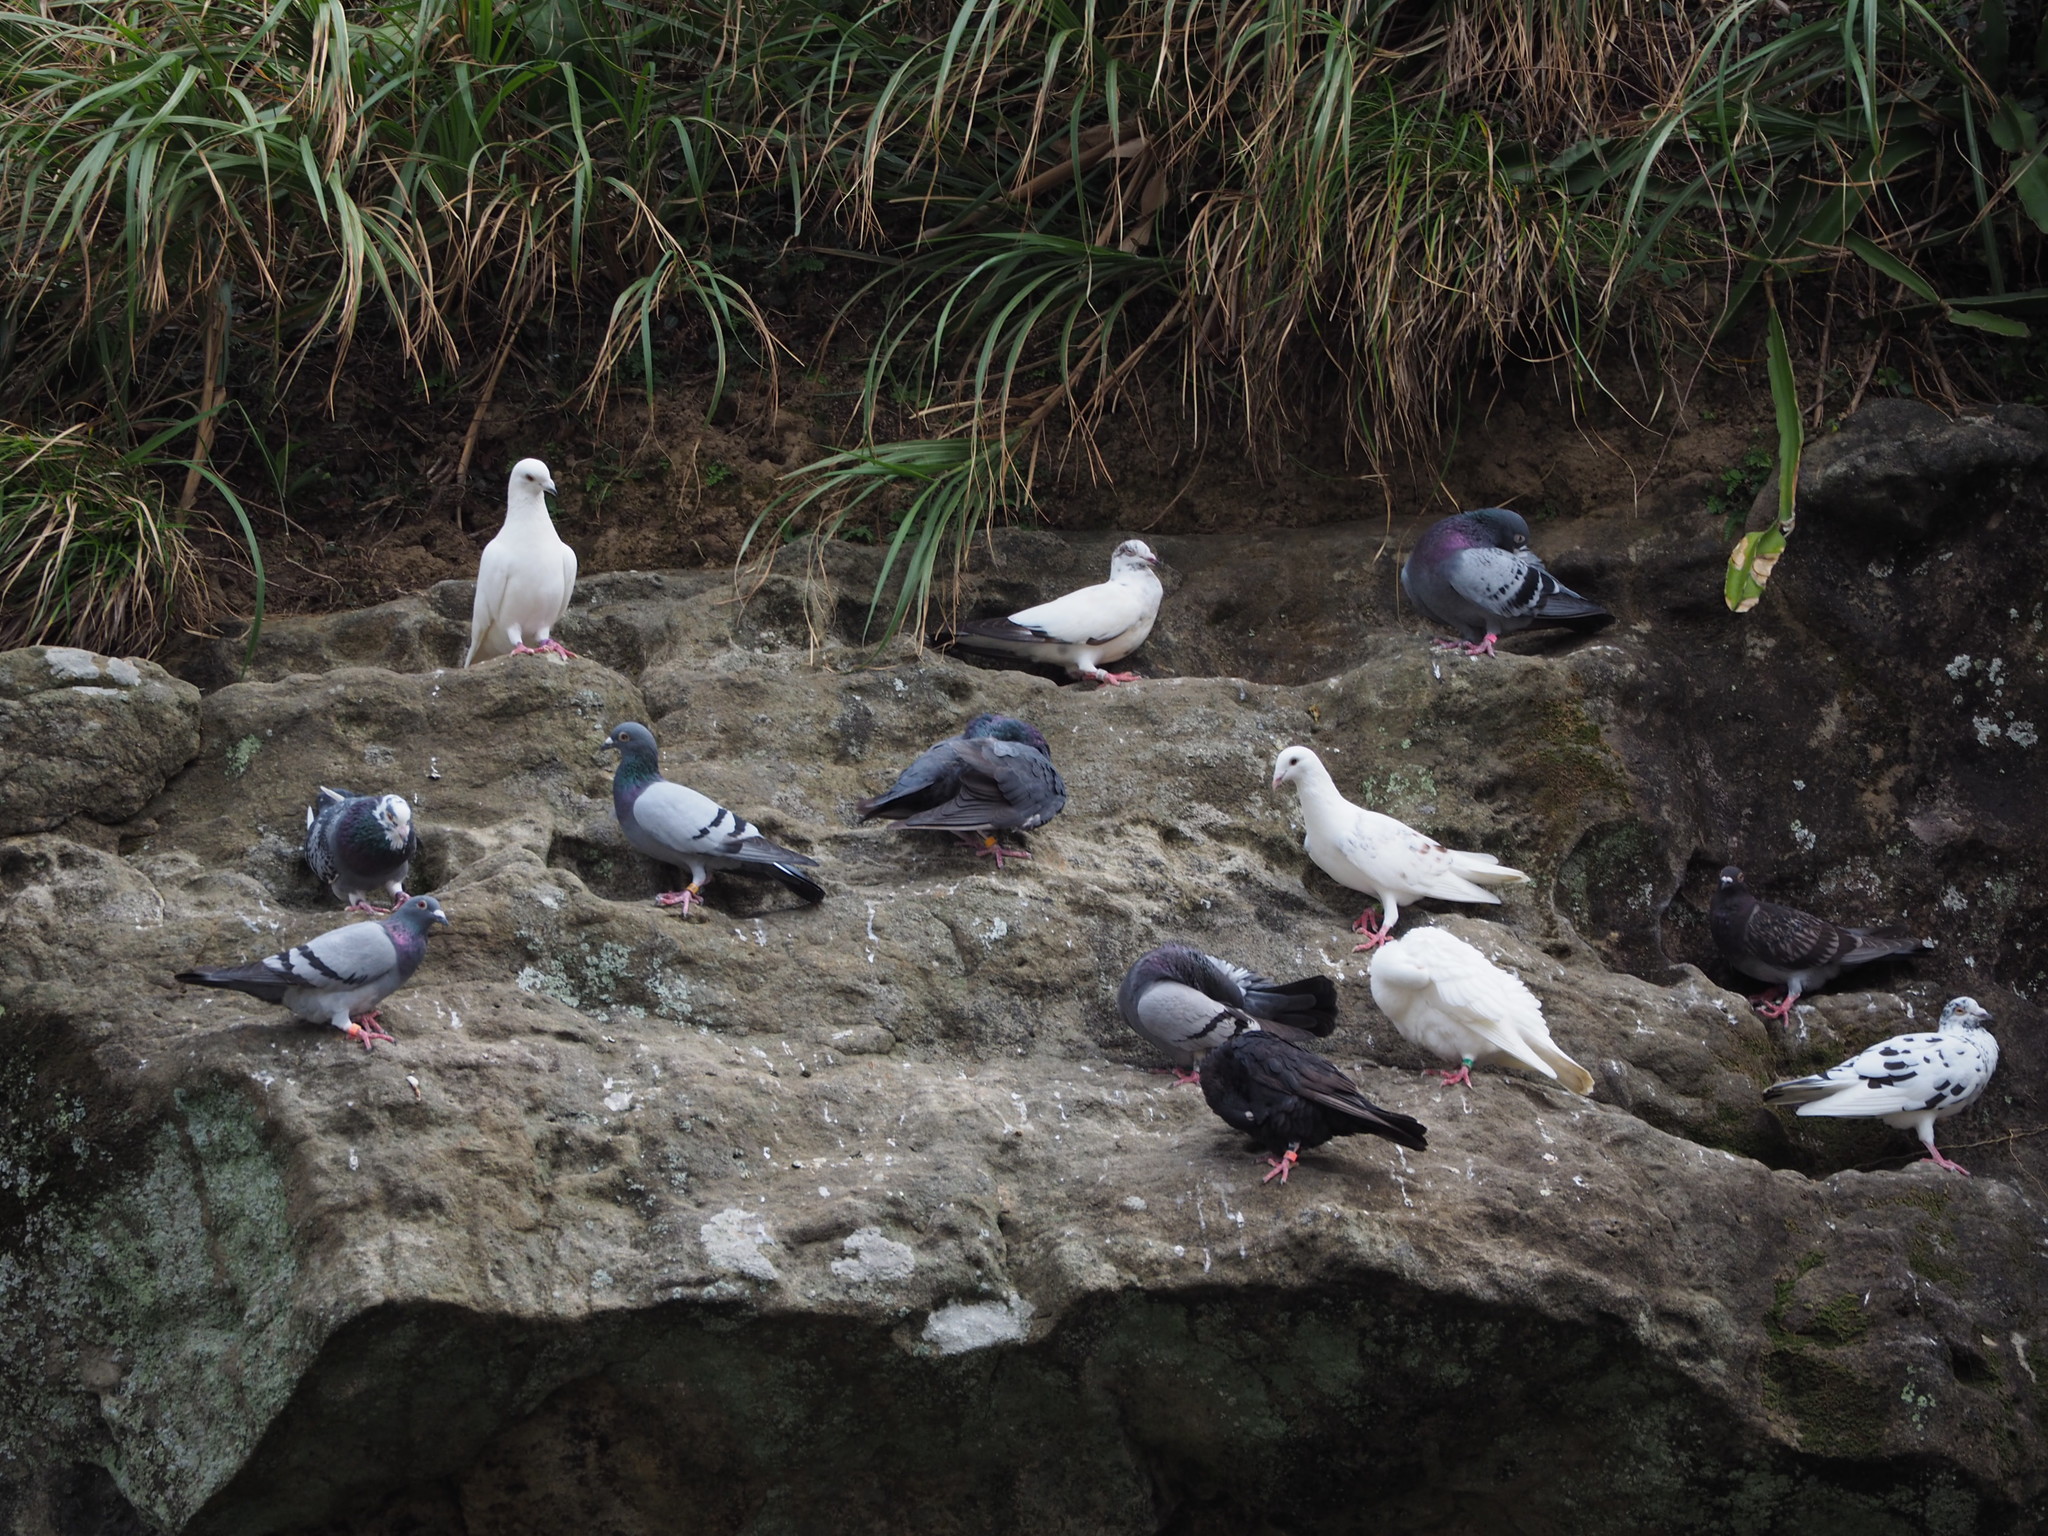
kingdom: Animalia
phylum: Chordata
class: Aves
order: Columbiformes
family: Columbidae
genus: Columba
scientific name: Columba livia
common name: Rock pigeon
